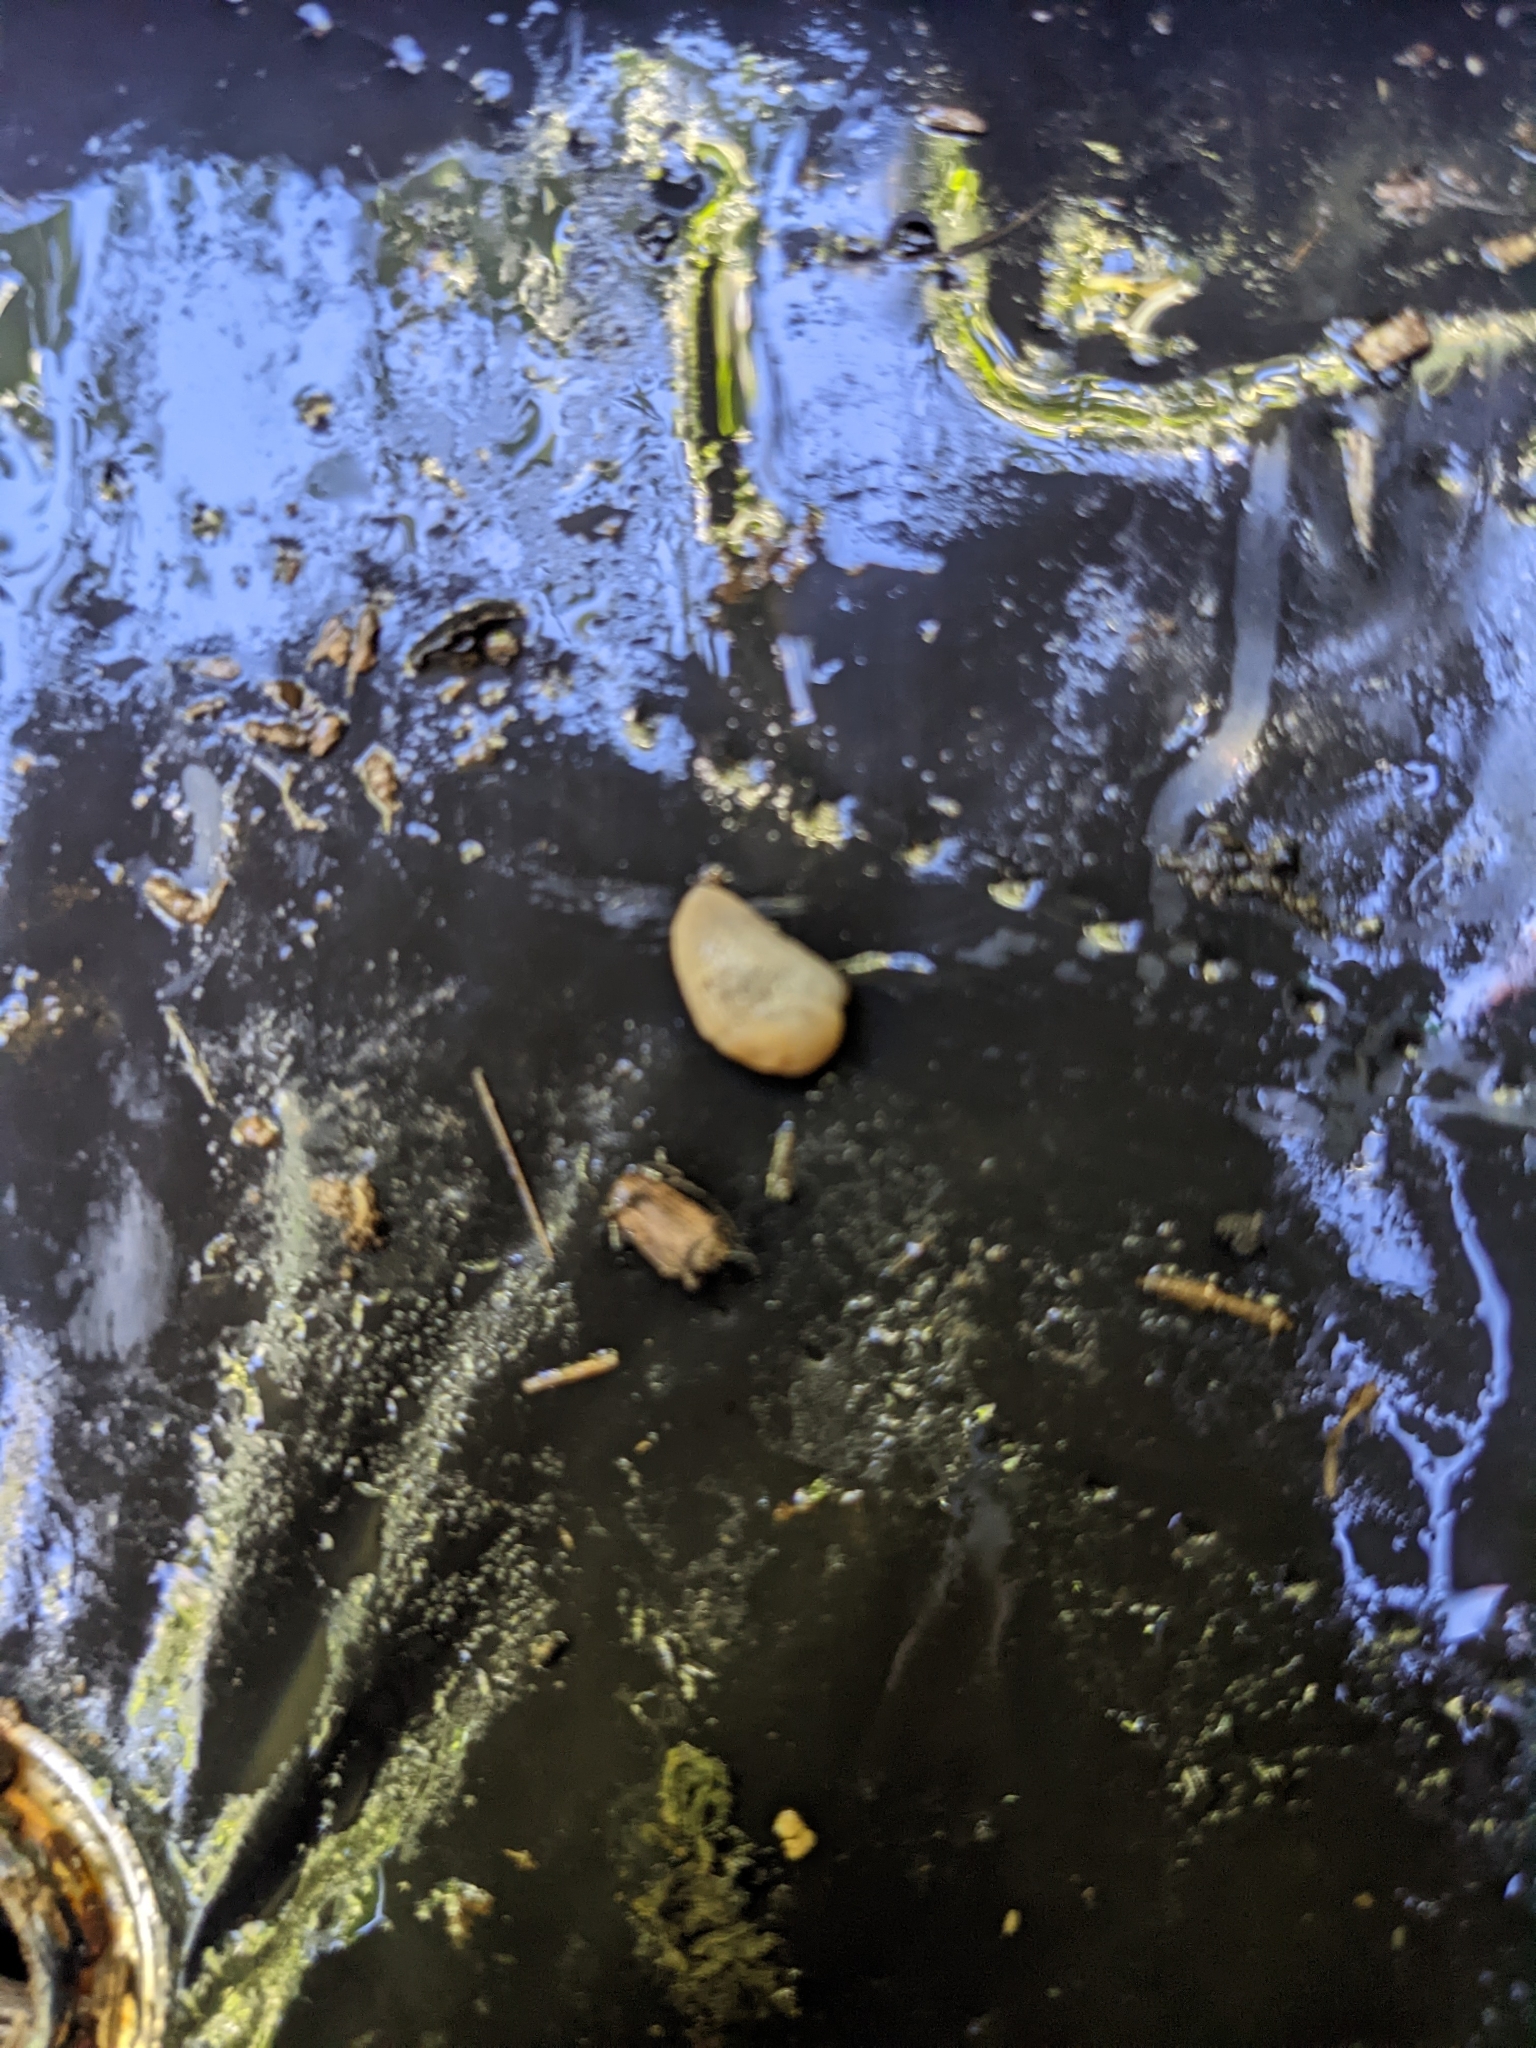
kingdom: Animalia
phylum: Mollusca
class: Gastropoda
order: Stylommatophora
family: Agriolimacidae
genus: Deroceras
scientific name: Deroceras reticulatum
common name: Gray field slug
